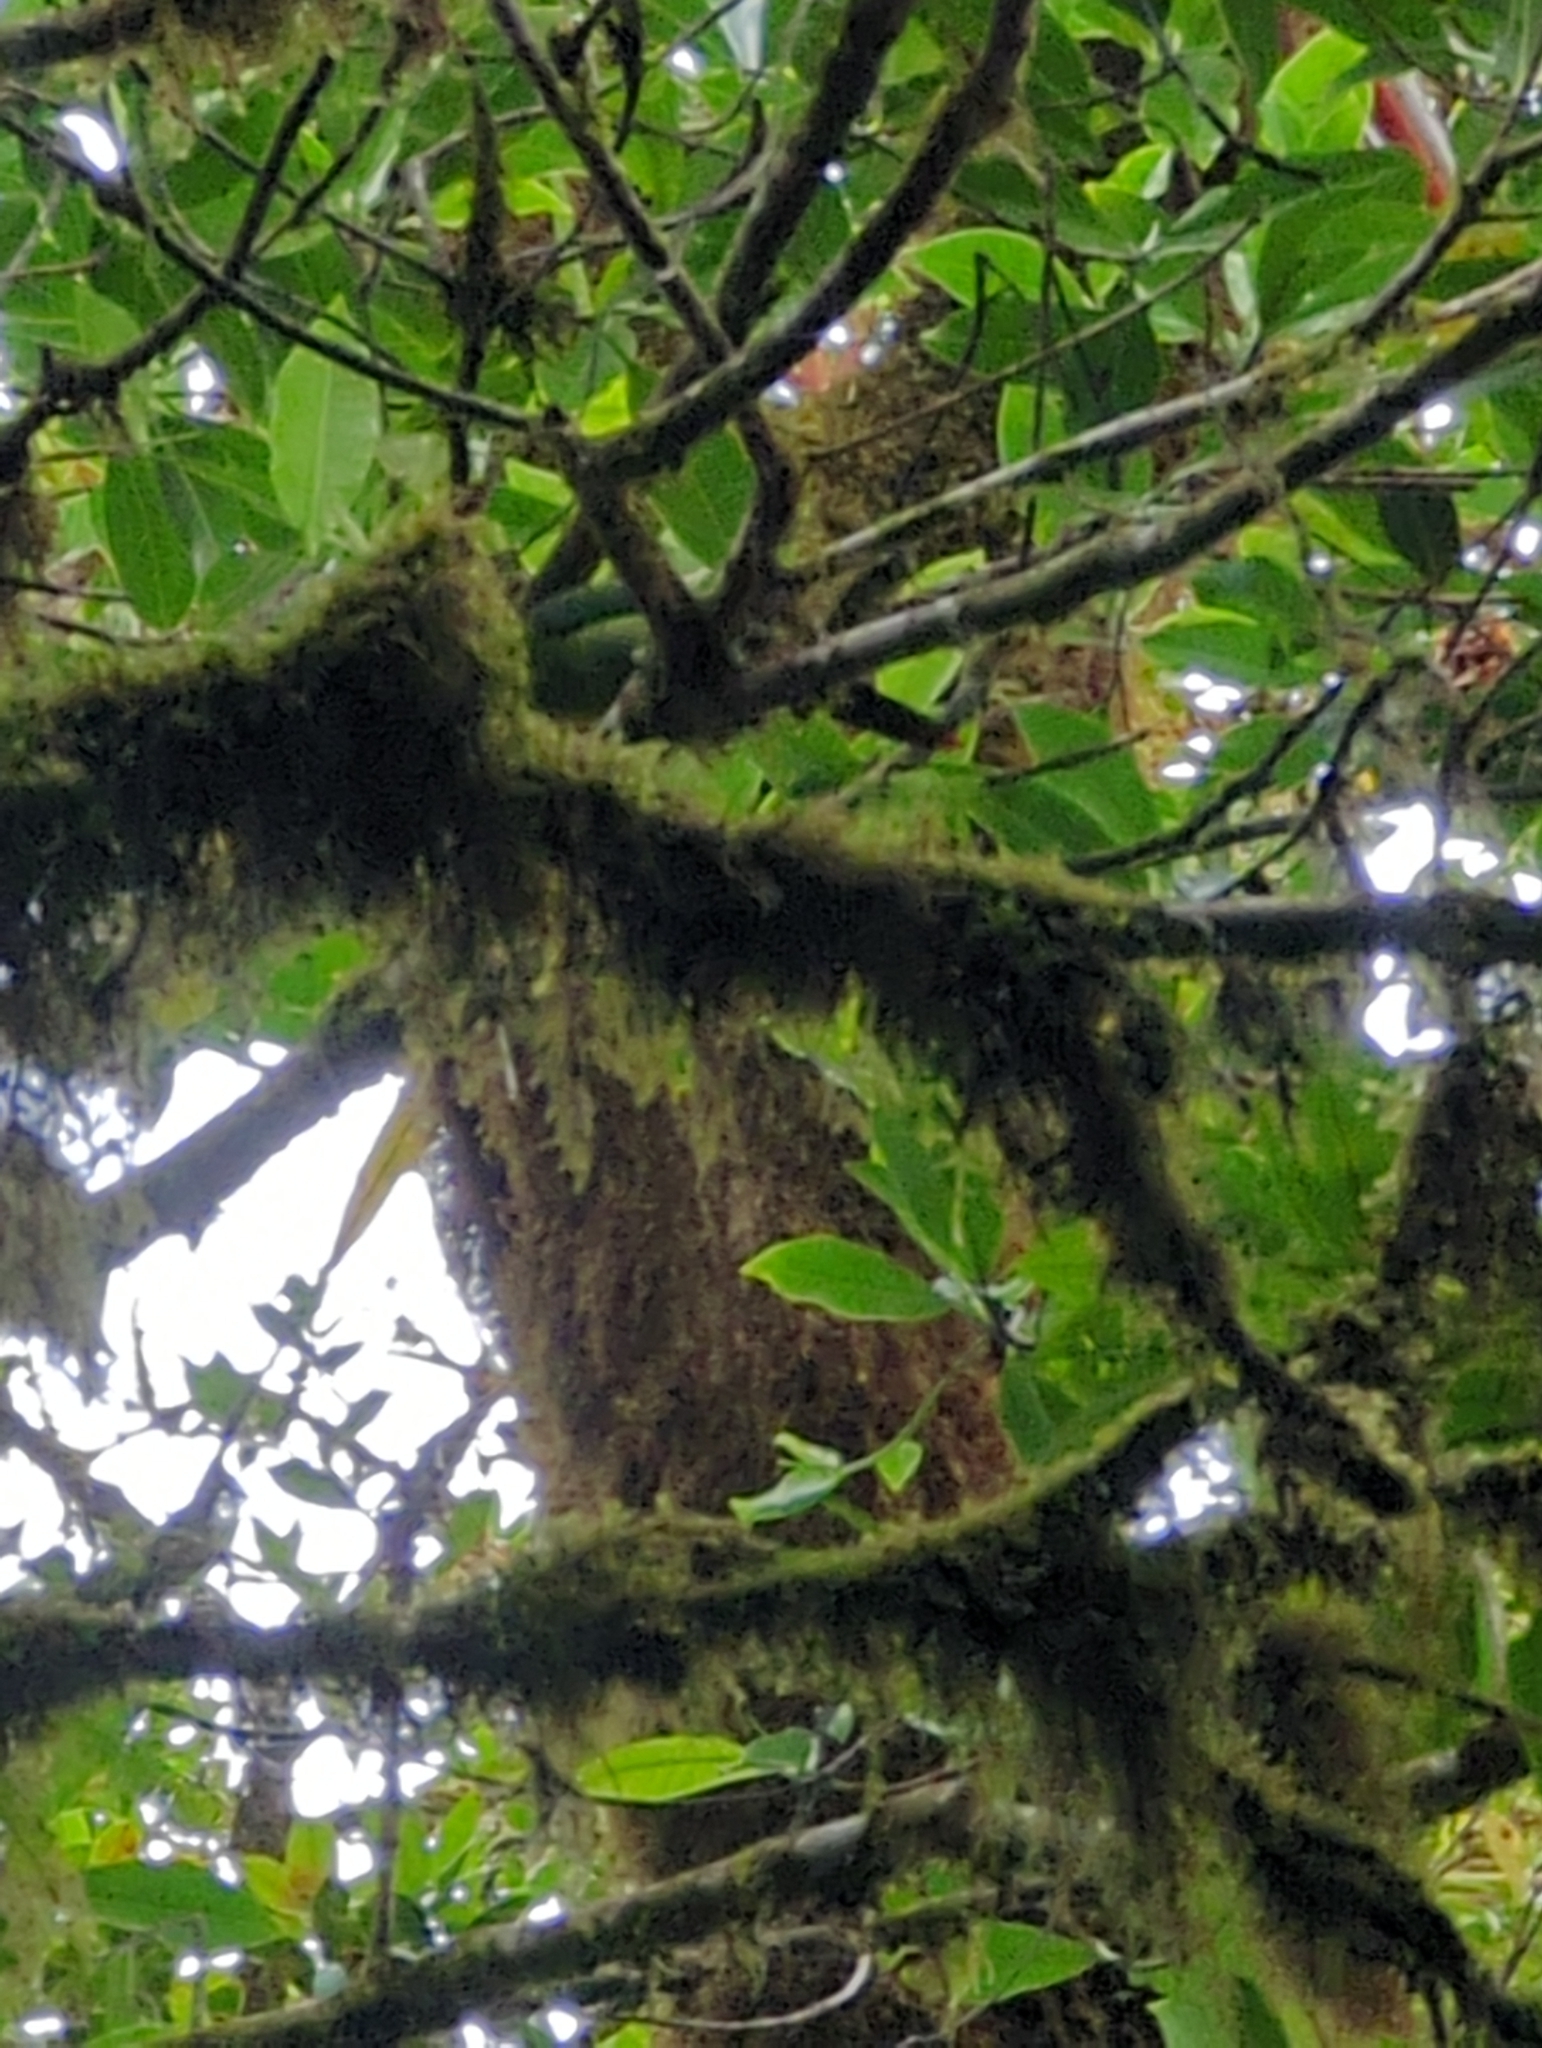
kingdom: Animalia
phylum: Chordata
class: Aves
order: Piciformes
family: Ramphastidae
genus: Aulacorhynchus
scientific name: Aulacorhynchus prasinus
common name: Emerald toucanet
